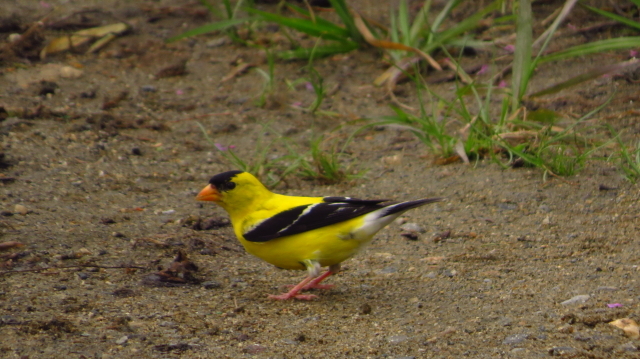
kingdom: Animalia
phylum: Chordata
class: Aves
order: Passeriformes
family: Fringillidae
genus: Spinus
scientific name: Spinus tristis
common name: American goldfinch
